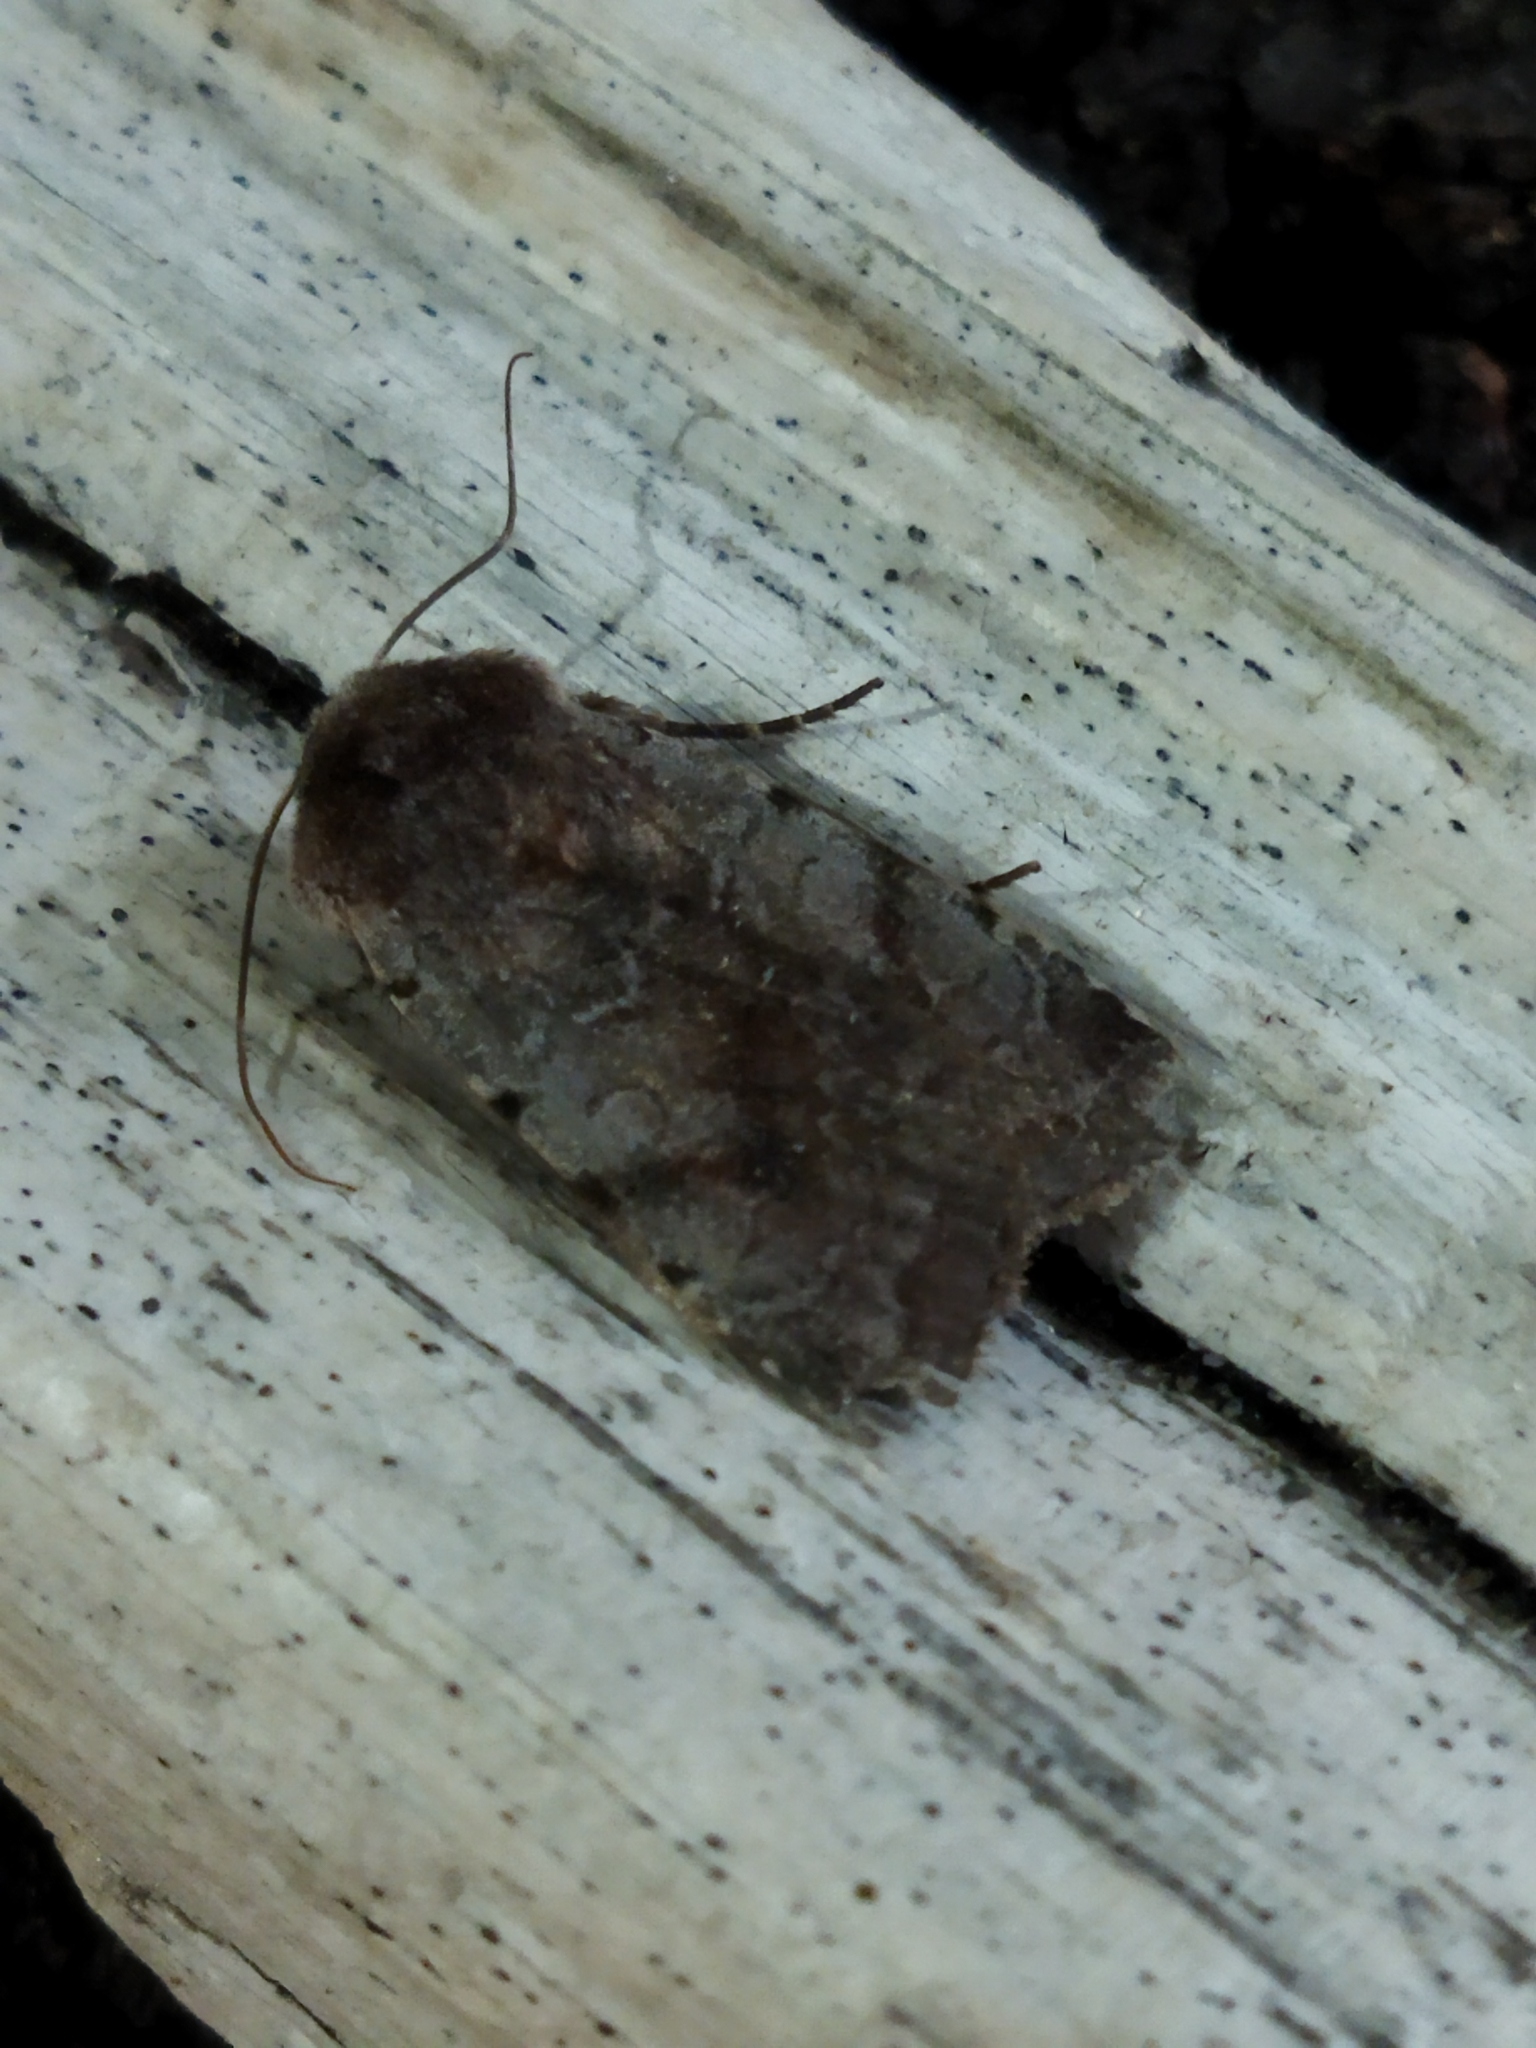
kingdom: Animalia
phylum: Arthropoda
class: Insecta
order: Lepidoptera
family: Noctuidae
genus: Cerastis
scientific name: Cerastis rubricosa
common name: Red chestnut
